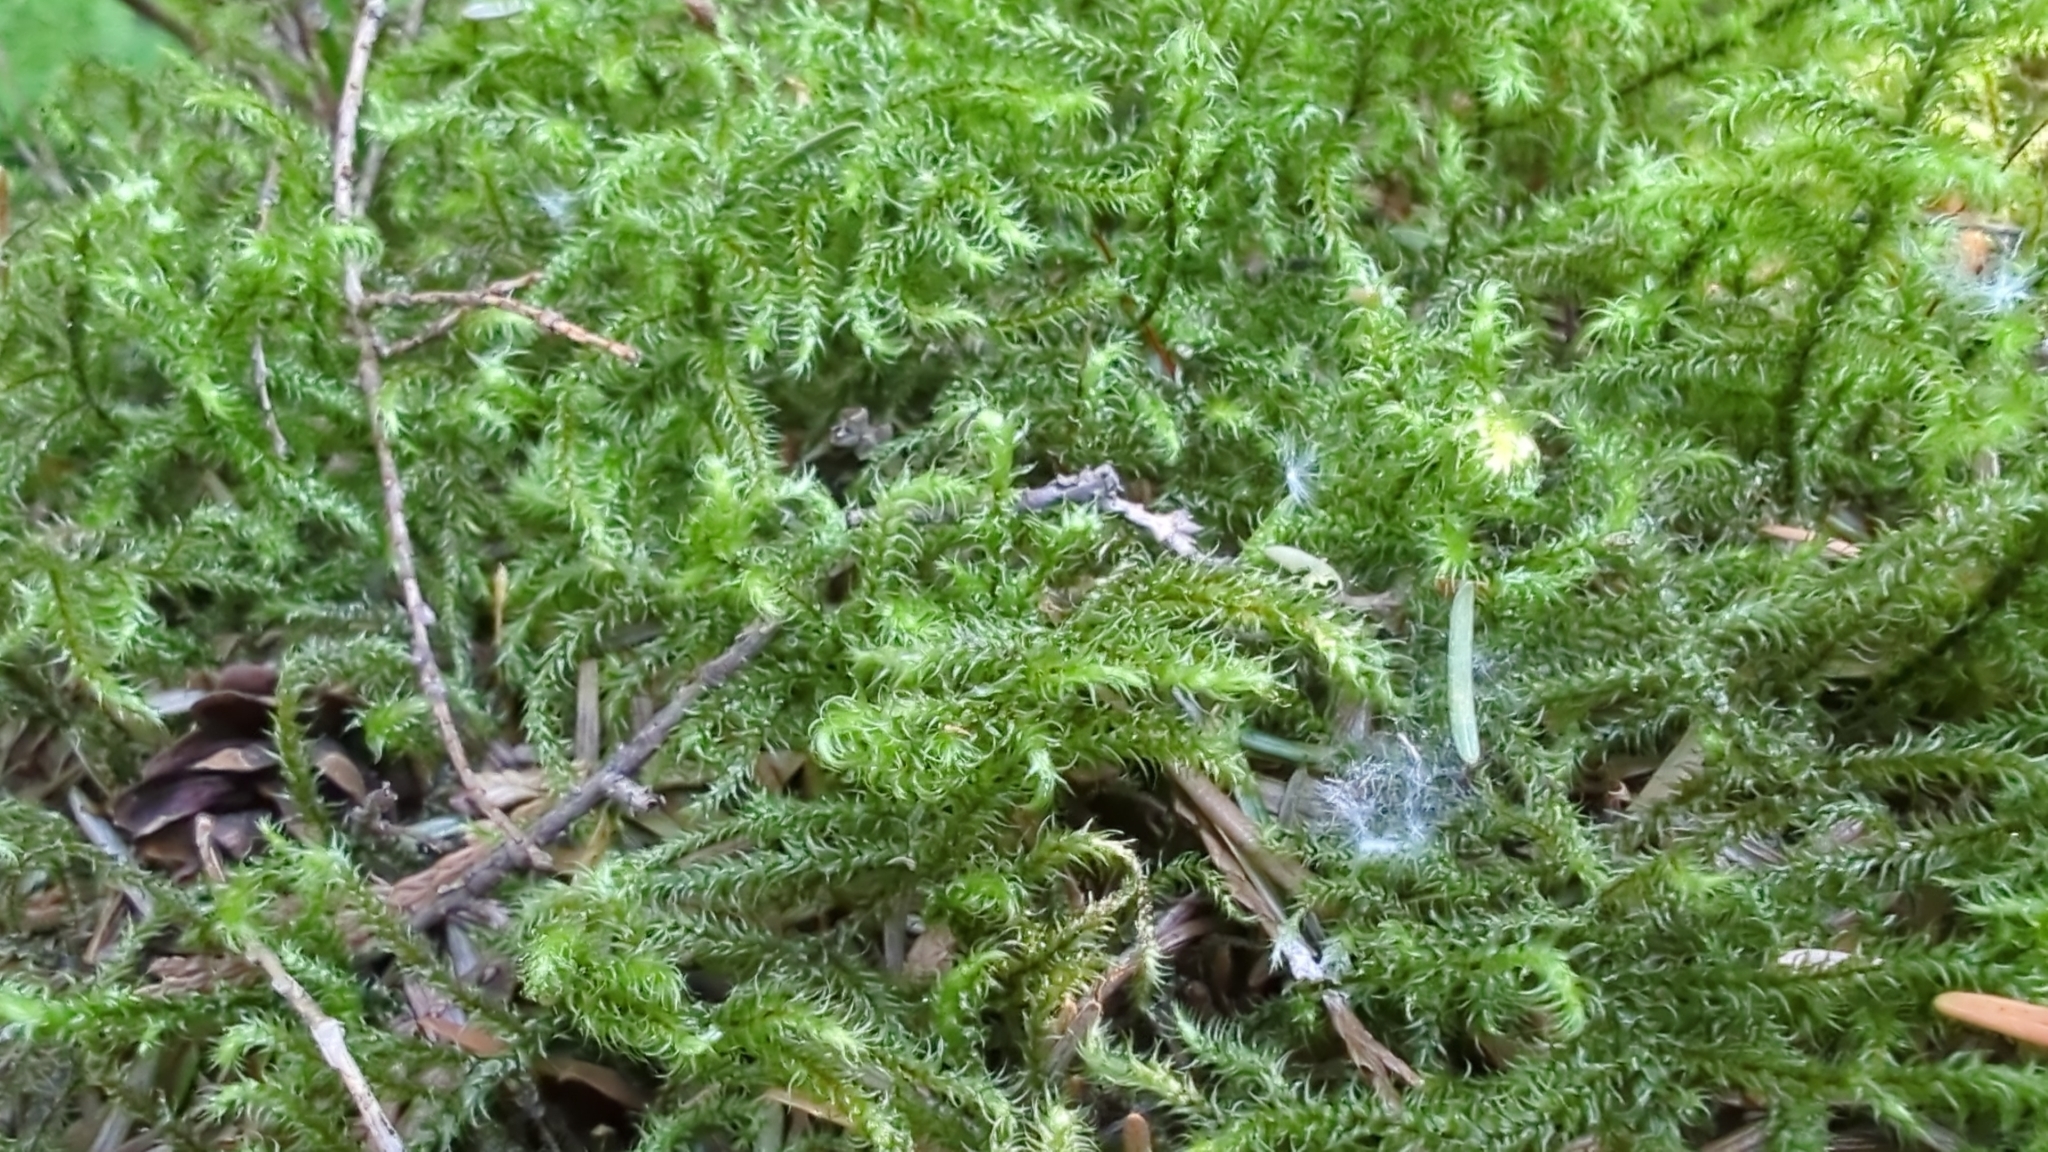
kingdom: Plantae
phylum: Bryophyta
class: Bryopsida
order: Hypnales
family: Hylocomiaceae
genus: Rhytidiadelphus
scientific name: Rhytidiadelphus loreus
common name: Lanky moss
